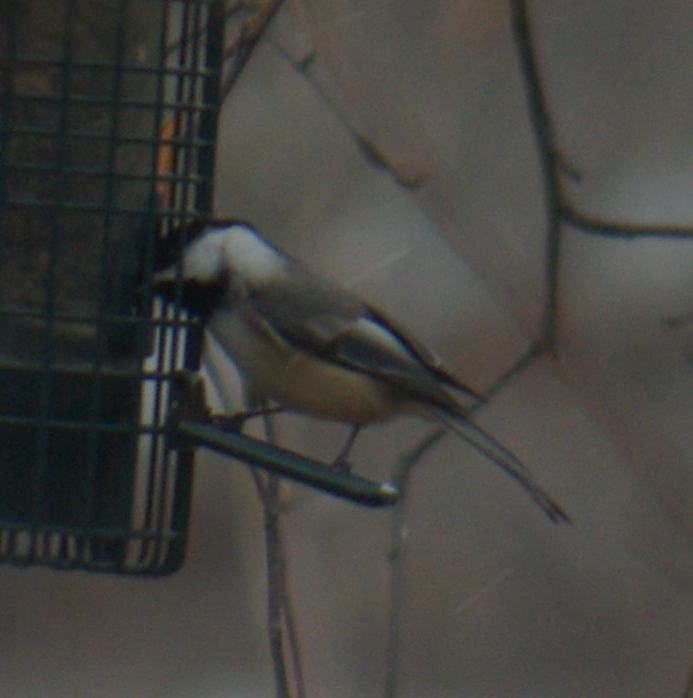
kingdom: Animalia
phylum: Chordata
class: Aves
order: Passeriformes
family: Paridae
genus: Poecile
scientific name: Poecile atricapillus
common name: Black-capped chickadee
